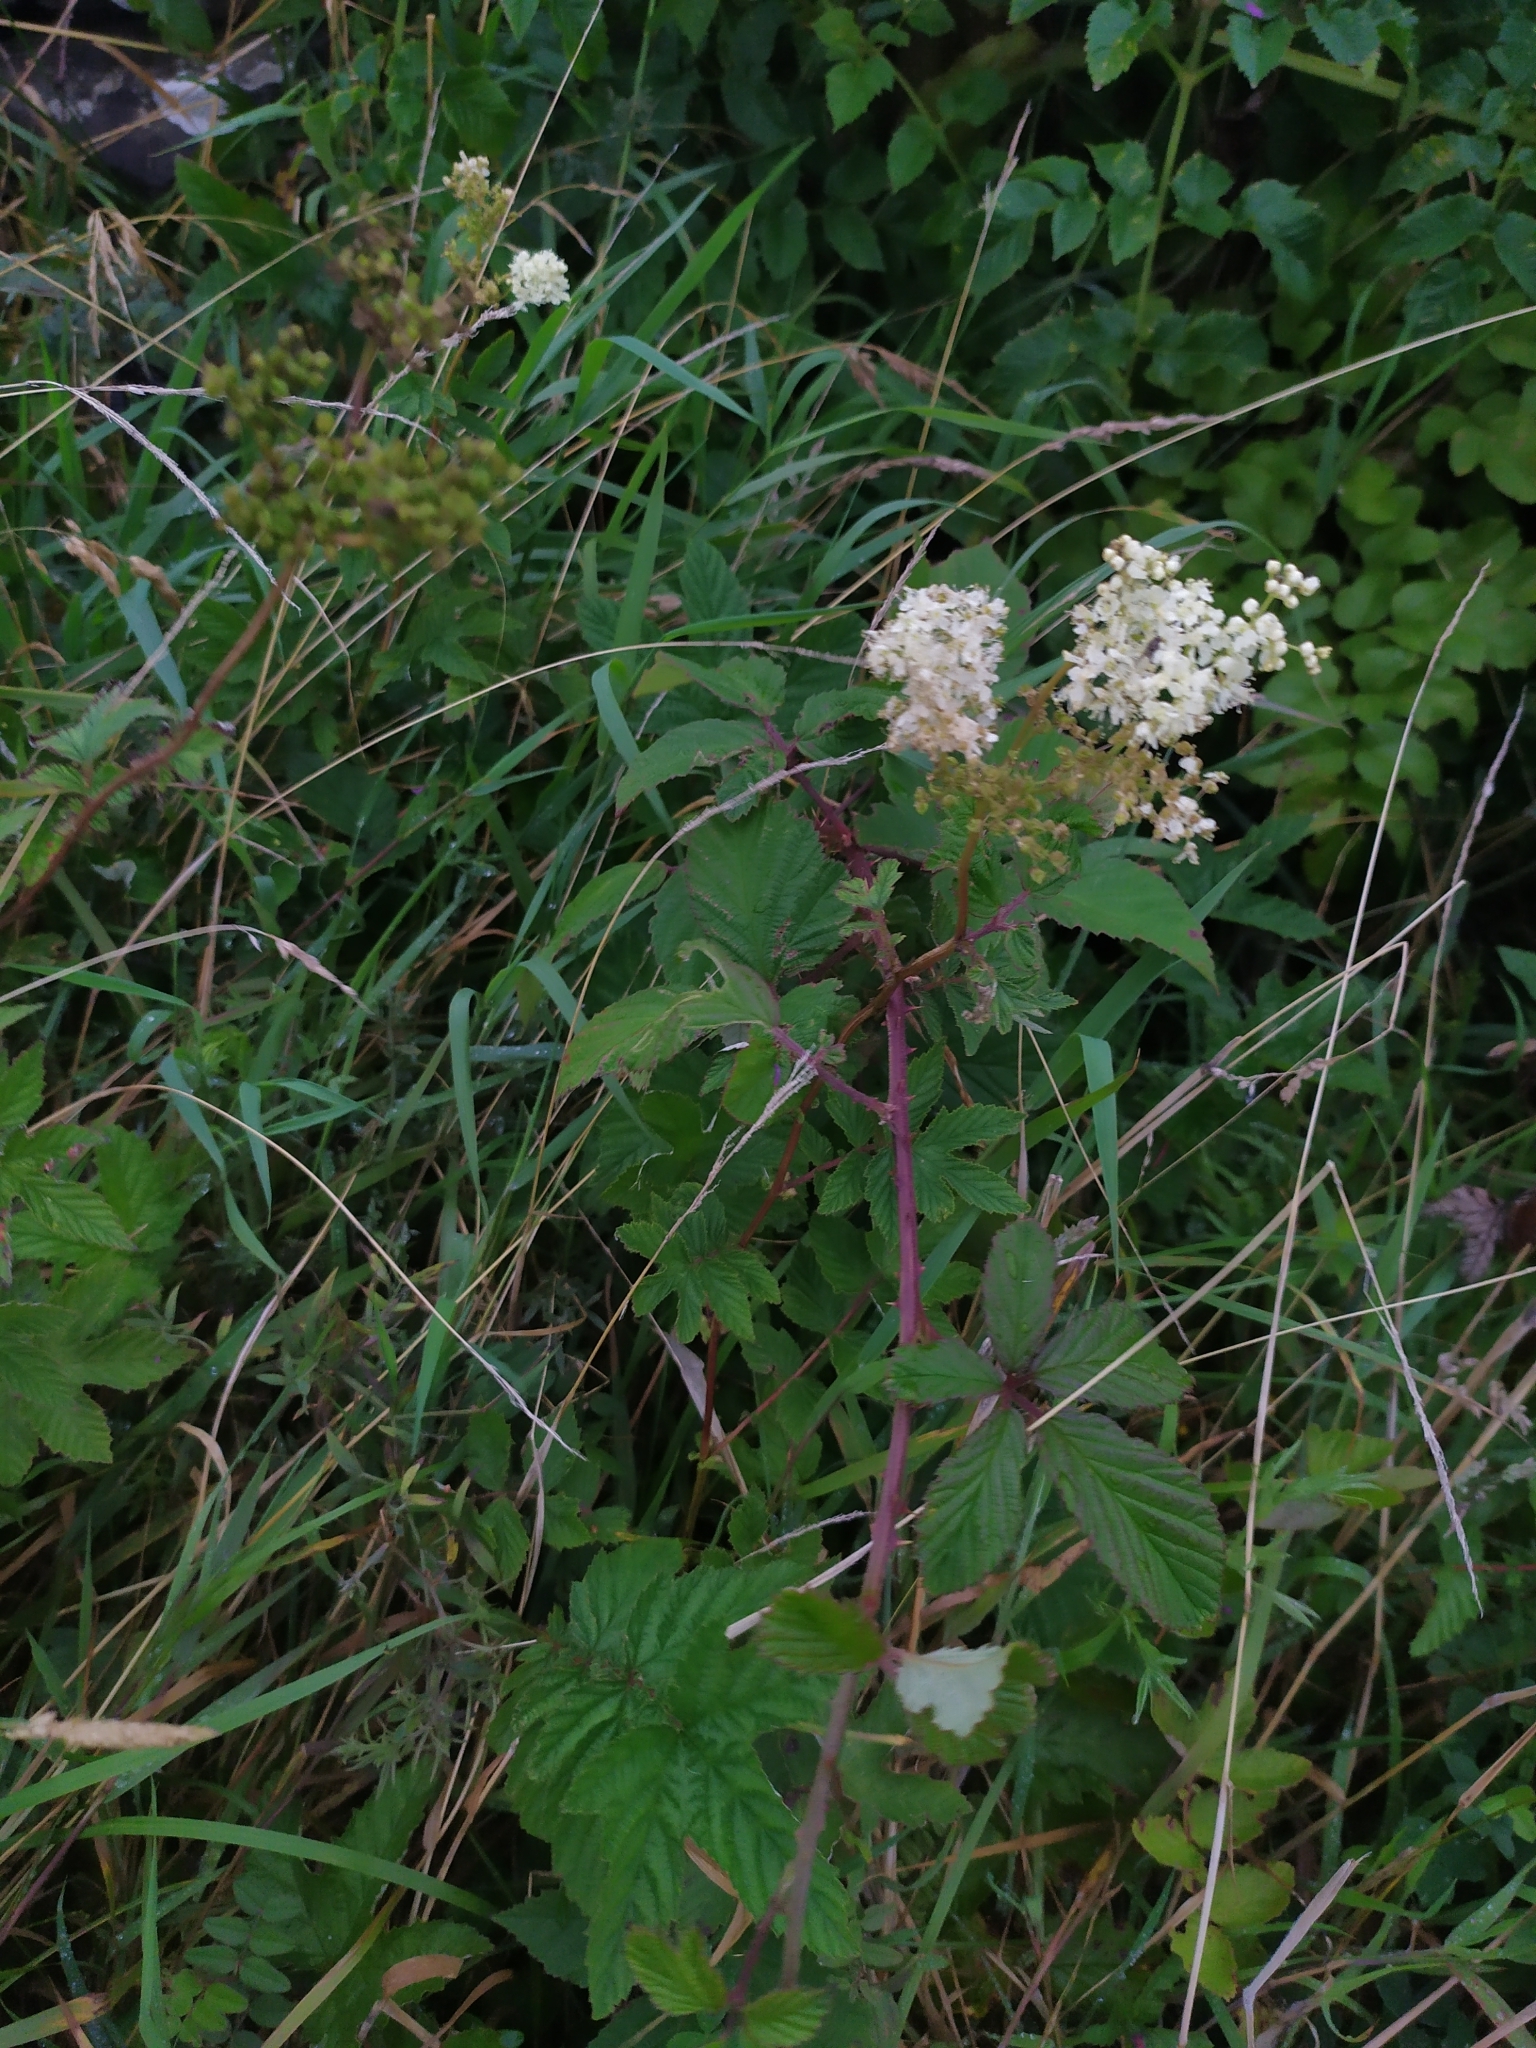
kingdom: Plantae
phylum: Tracheophyta
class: Magnoliopsida
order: Rosales
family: Rosaceae
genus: Filipendula
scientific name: Filipendula ulmaria
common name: Meadowsweet
